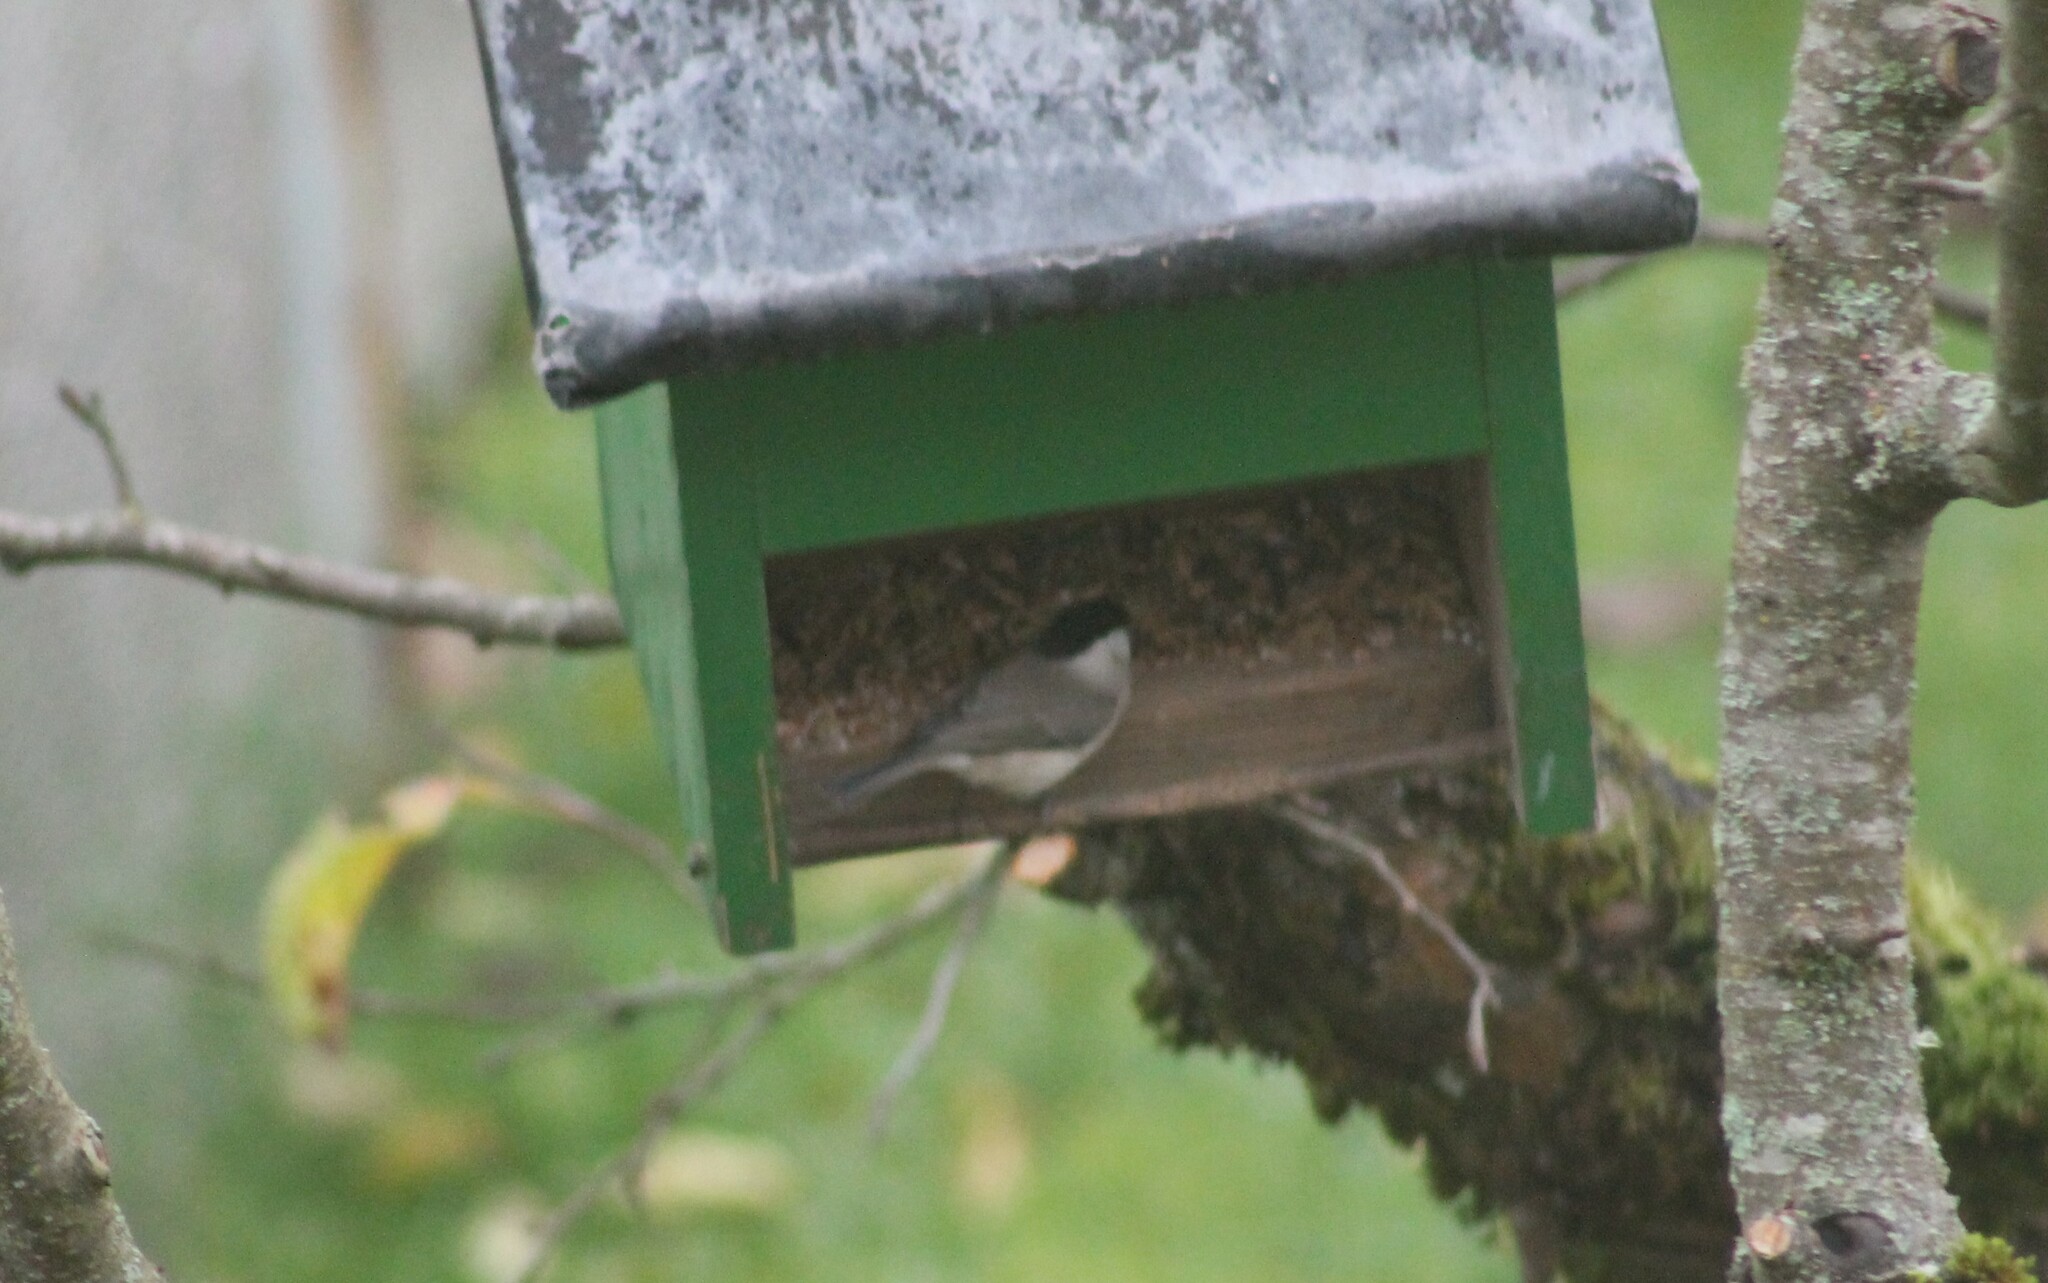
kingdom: Animalia
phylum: Chordata
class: Aves
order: Passeriformes
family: Paridae
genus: Poecile
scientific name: Poecile palustris
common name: Marsh tit
